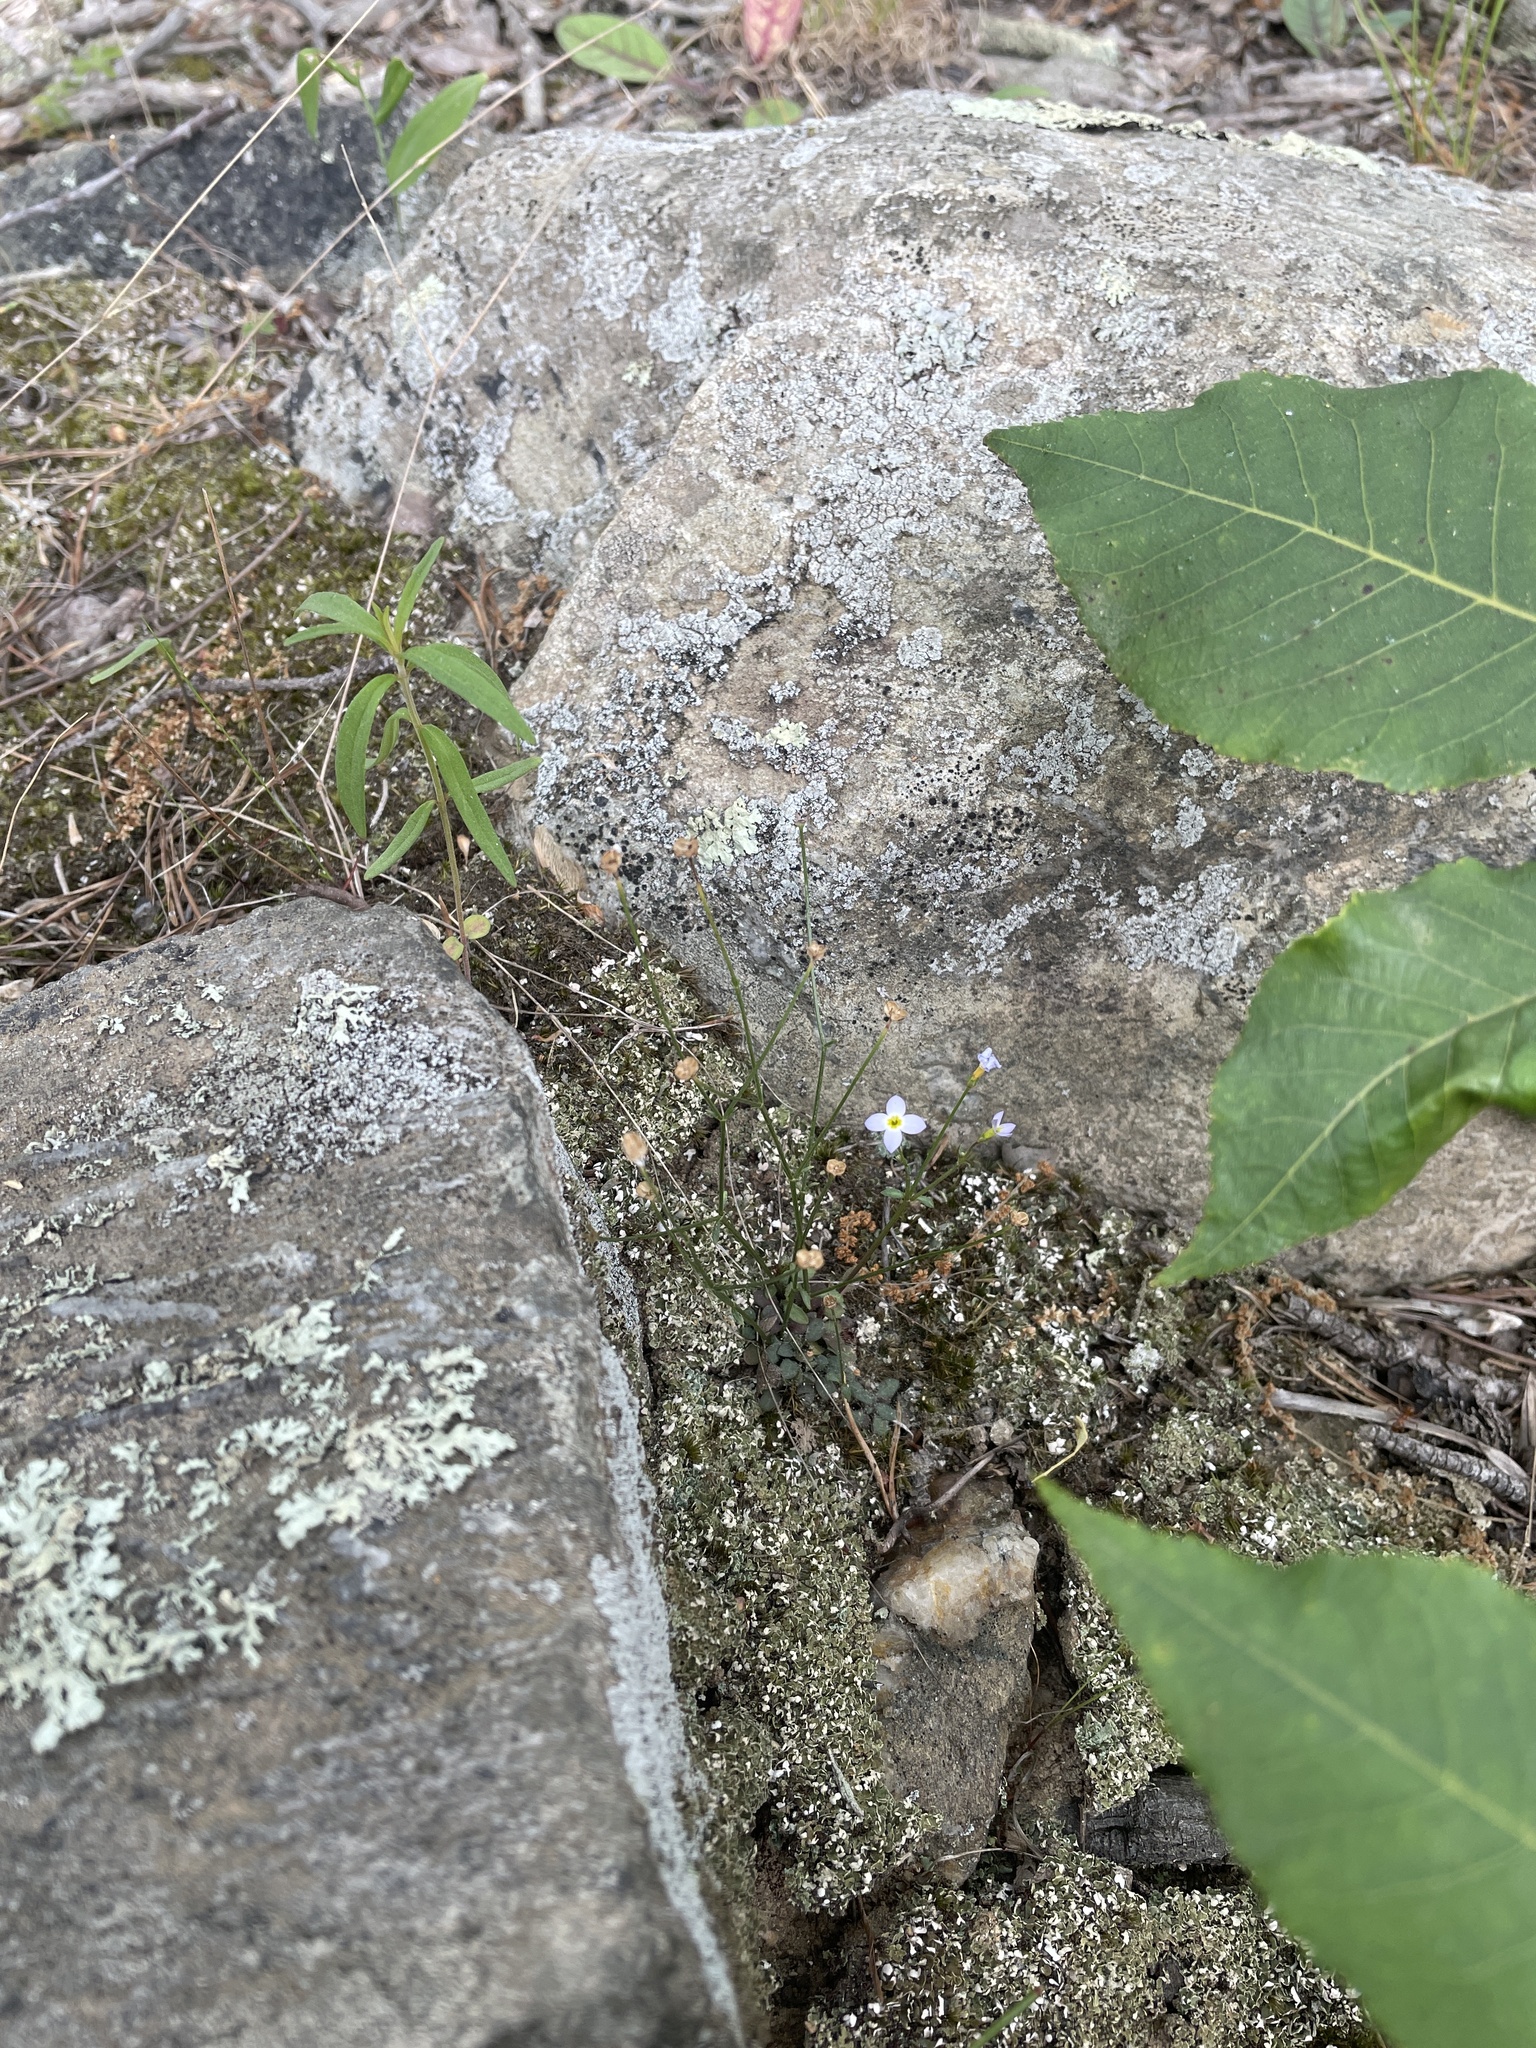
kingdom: Plantae
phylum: Tracheophyta
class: Magnoliopsida
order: Gentianales
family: Rubiaceae
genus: Houstonia
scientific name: Houstonia caerulea
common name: Bluets
